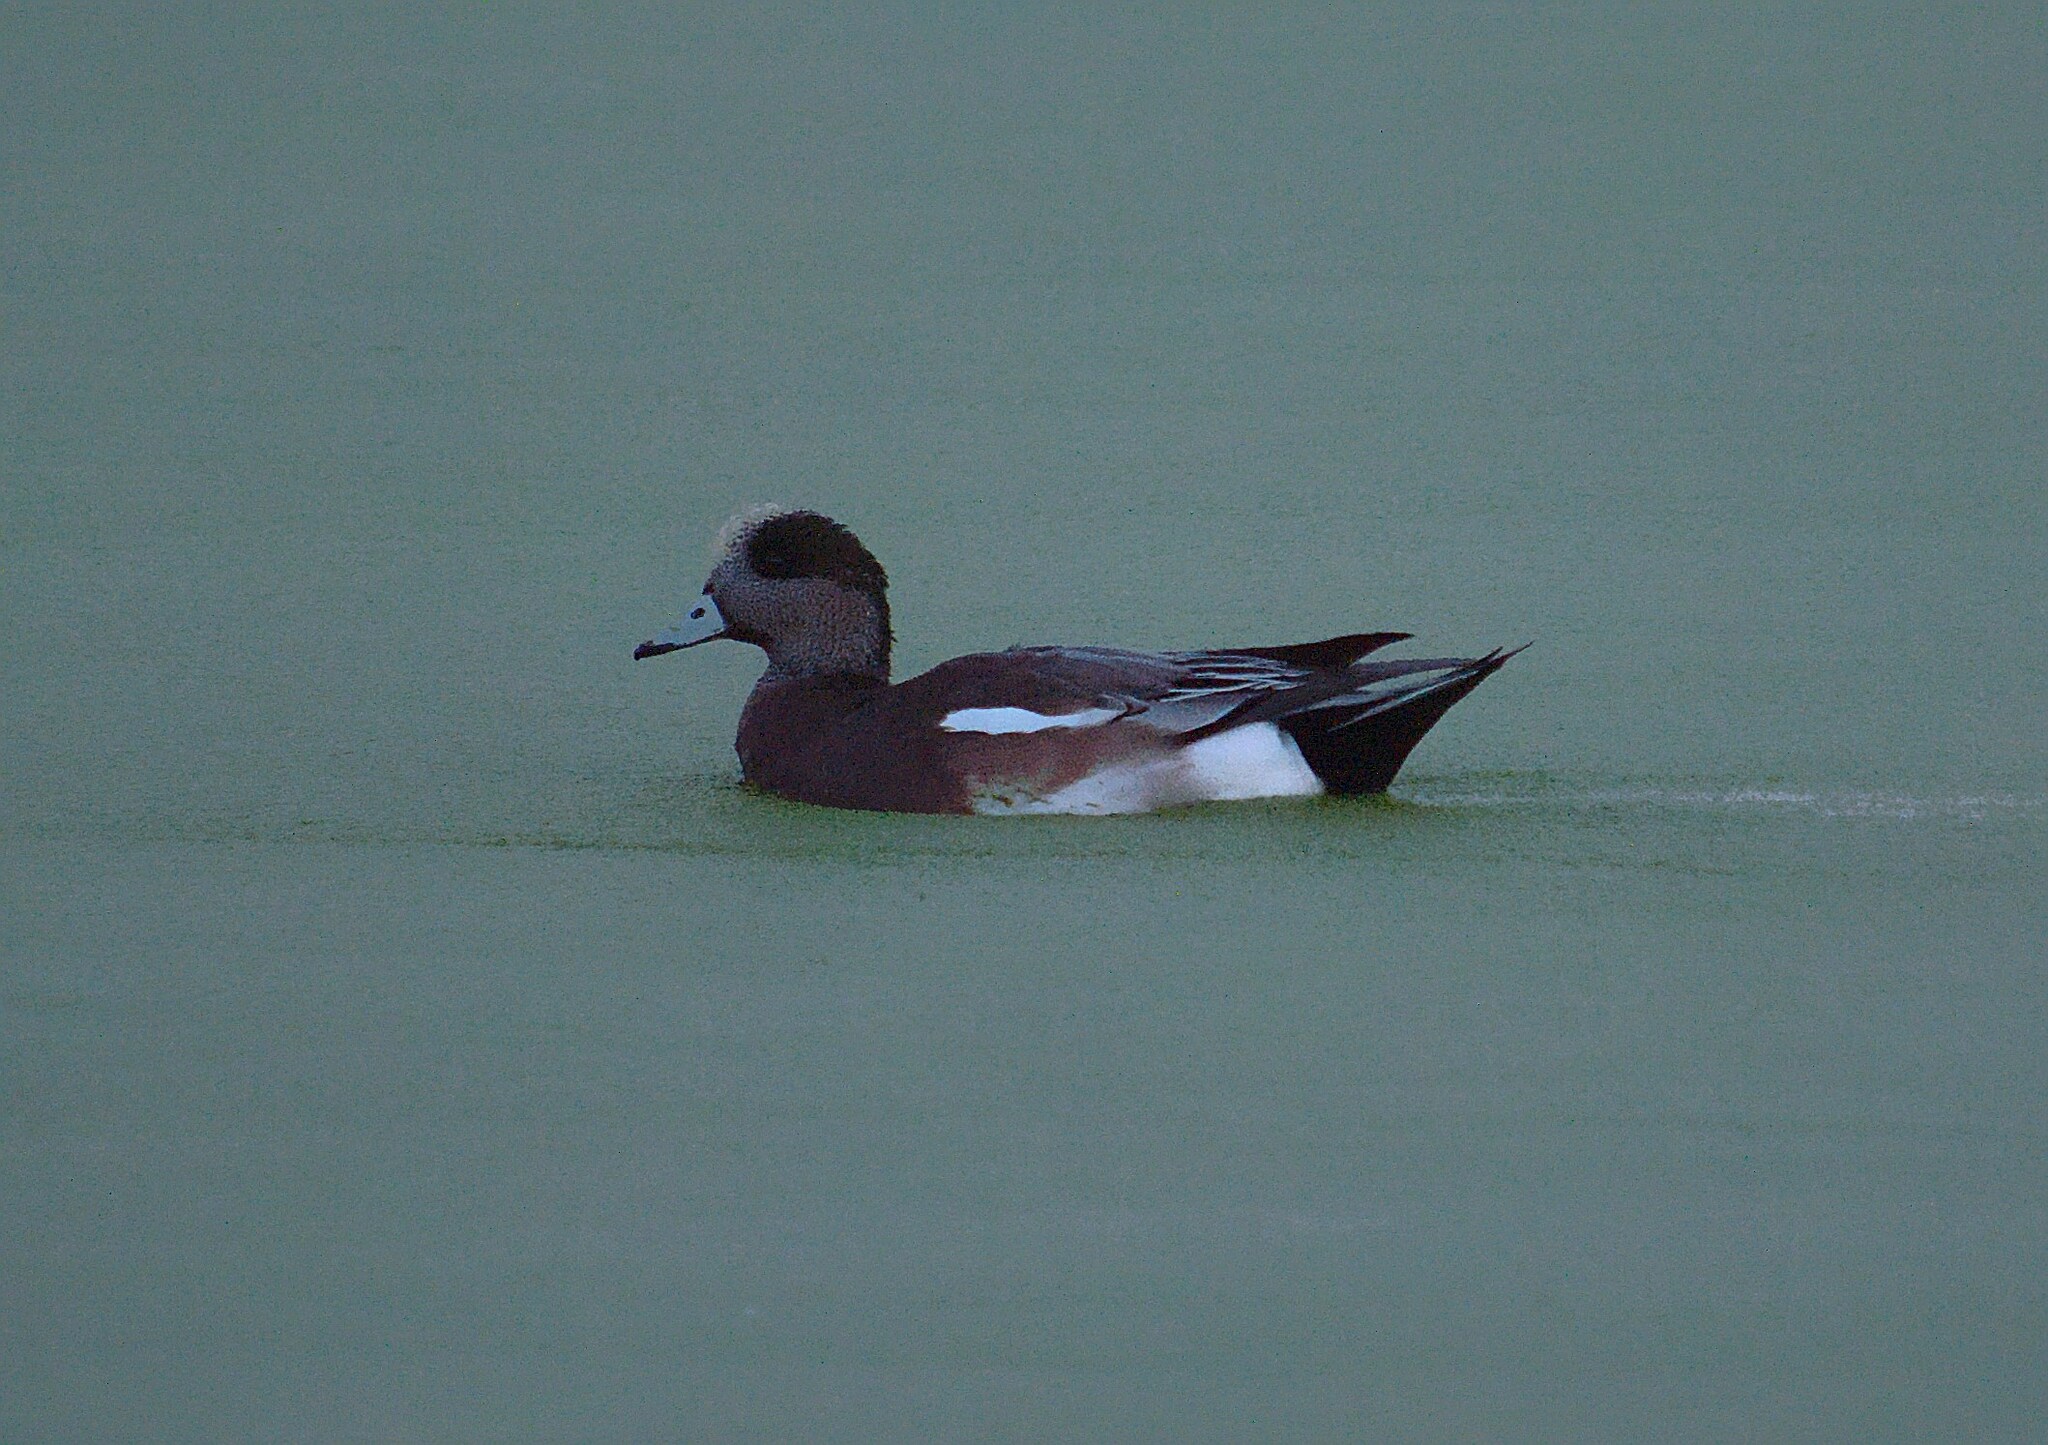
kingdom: Animalia
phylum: Chordata
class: Aves
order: Anseriformes
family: Anatidae
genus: Mareca
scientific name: Mareca americana
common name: American wigeon
